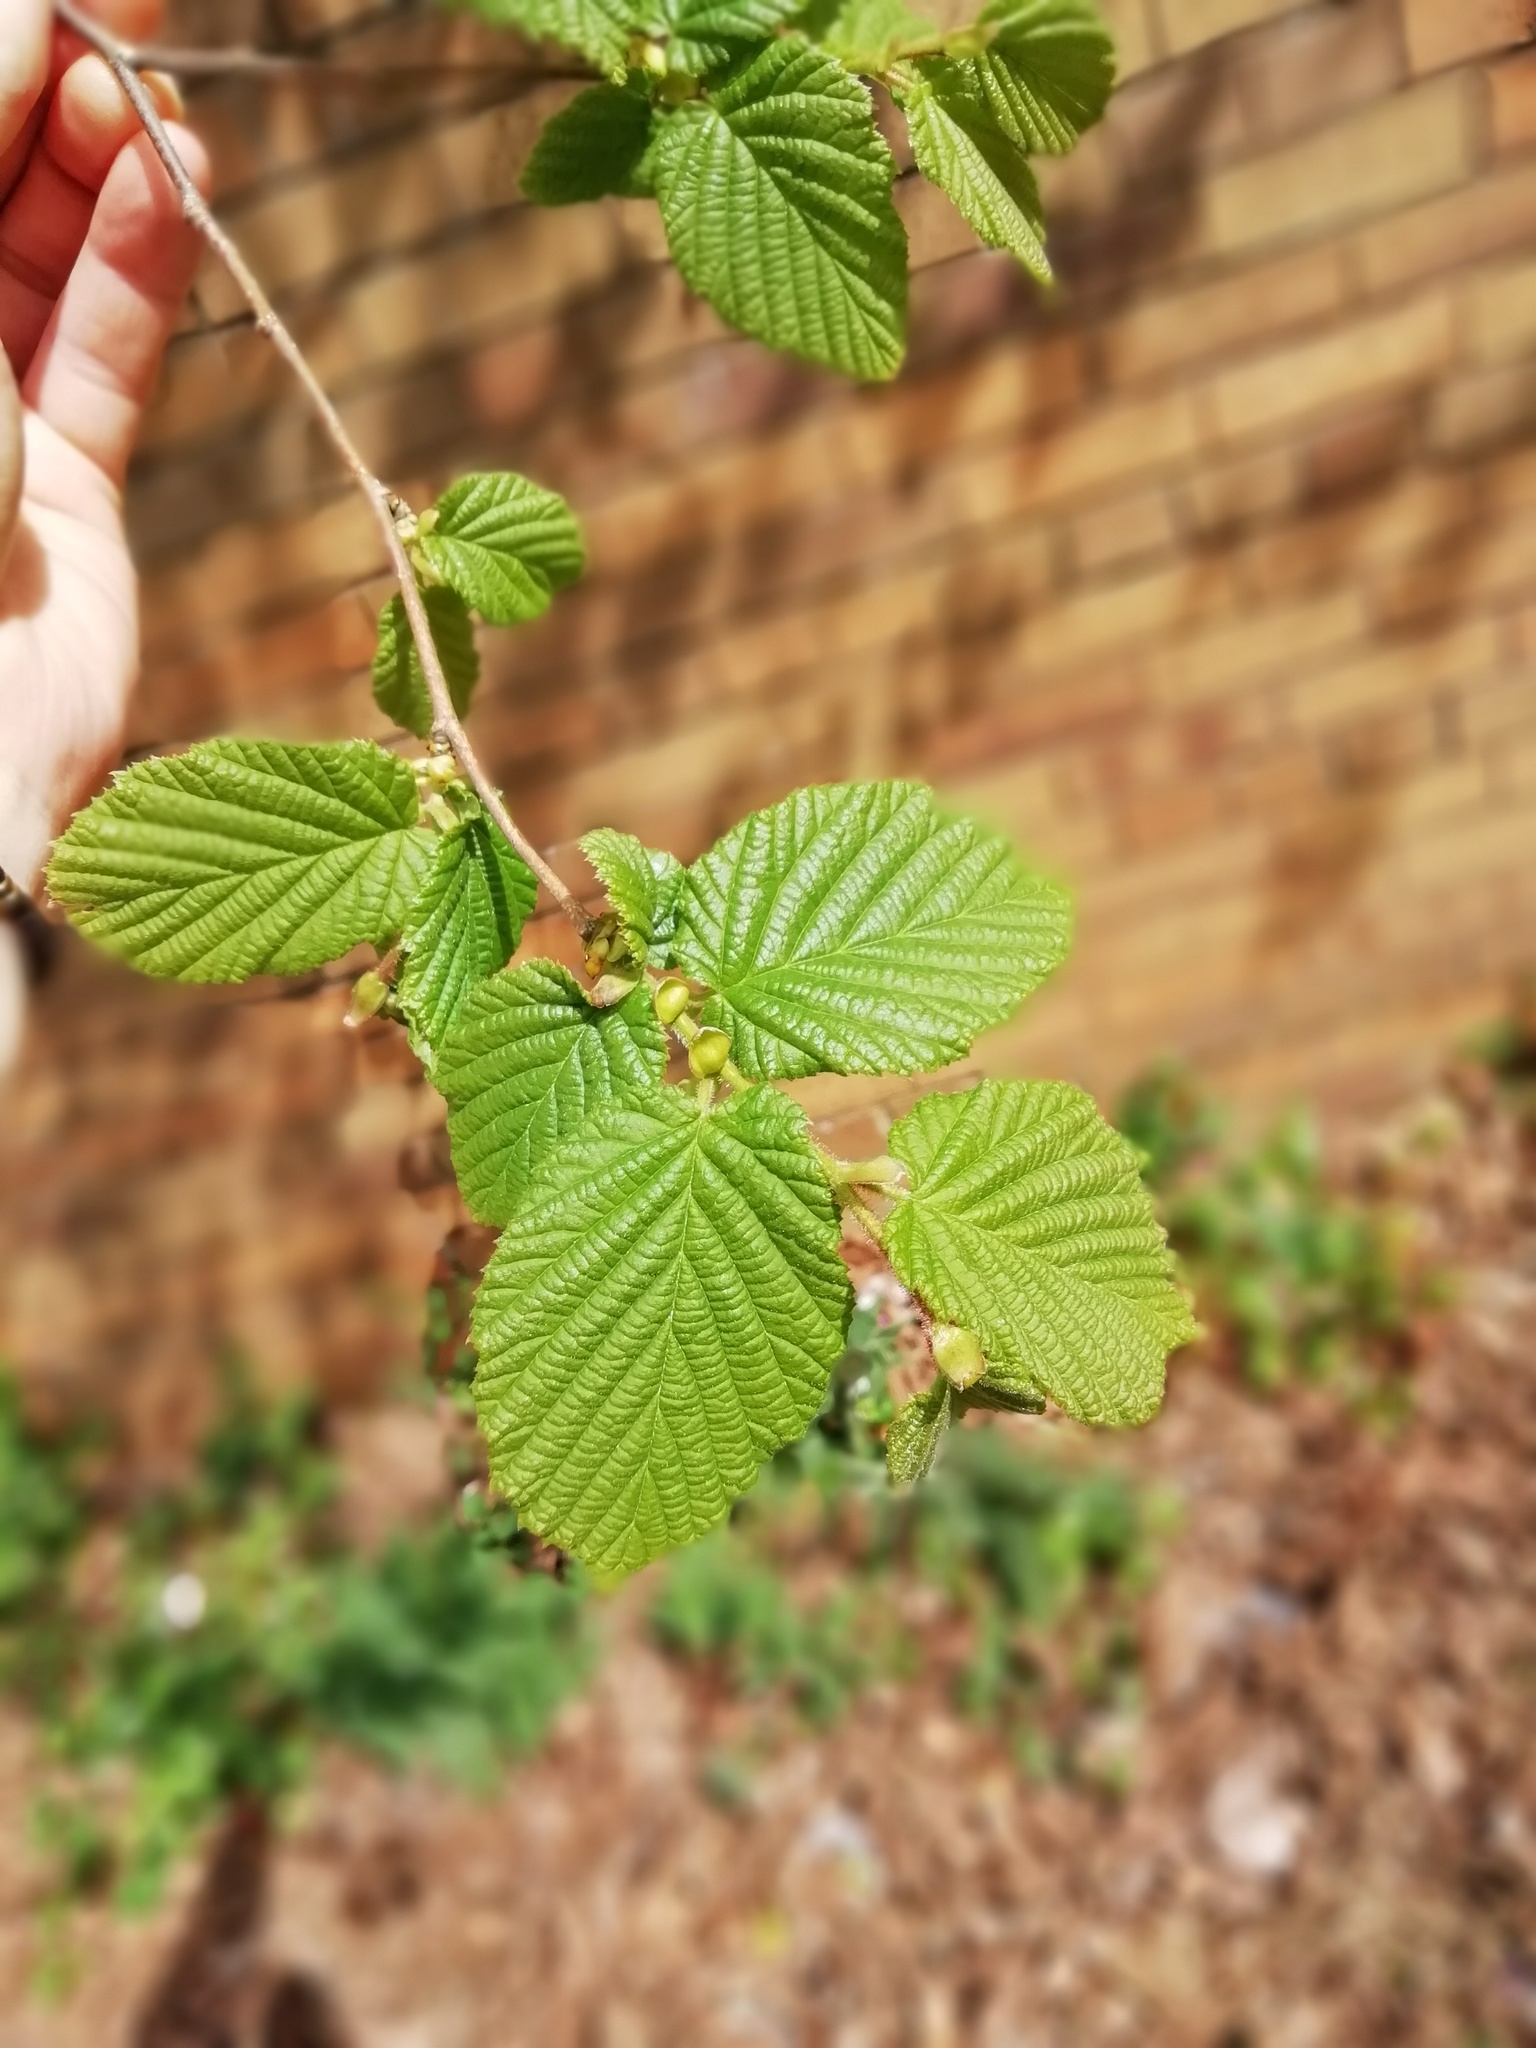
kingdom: Plantae
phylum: Tracheophyta
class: Magnoliopsida
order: Fagales
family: Betulaceae
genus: Corylus
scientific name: Corylus avellana
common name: European hazel
